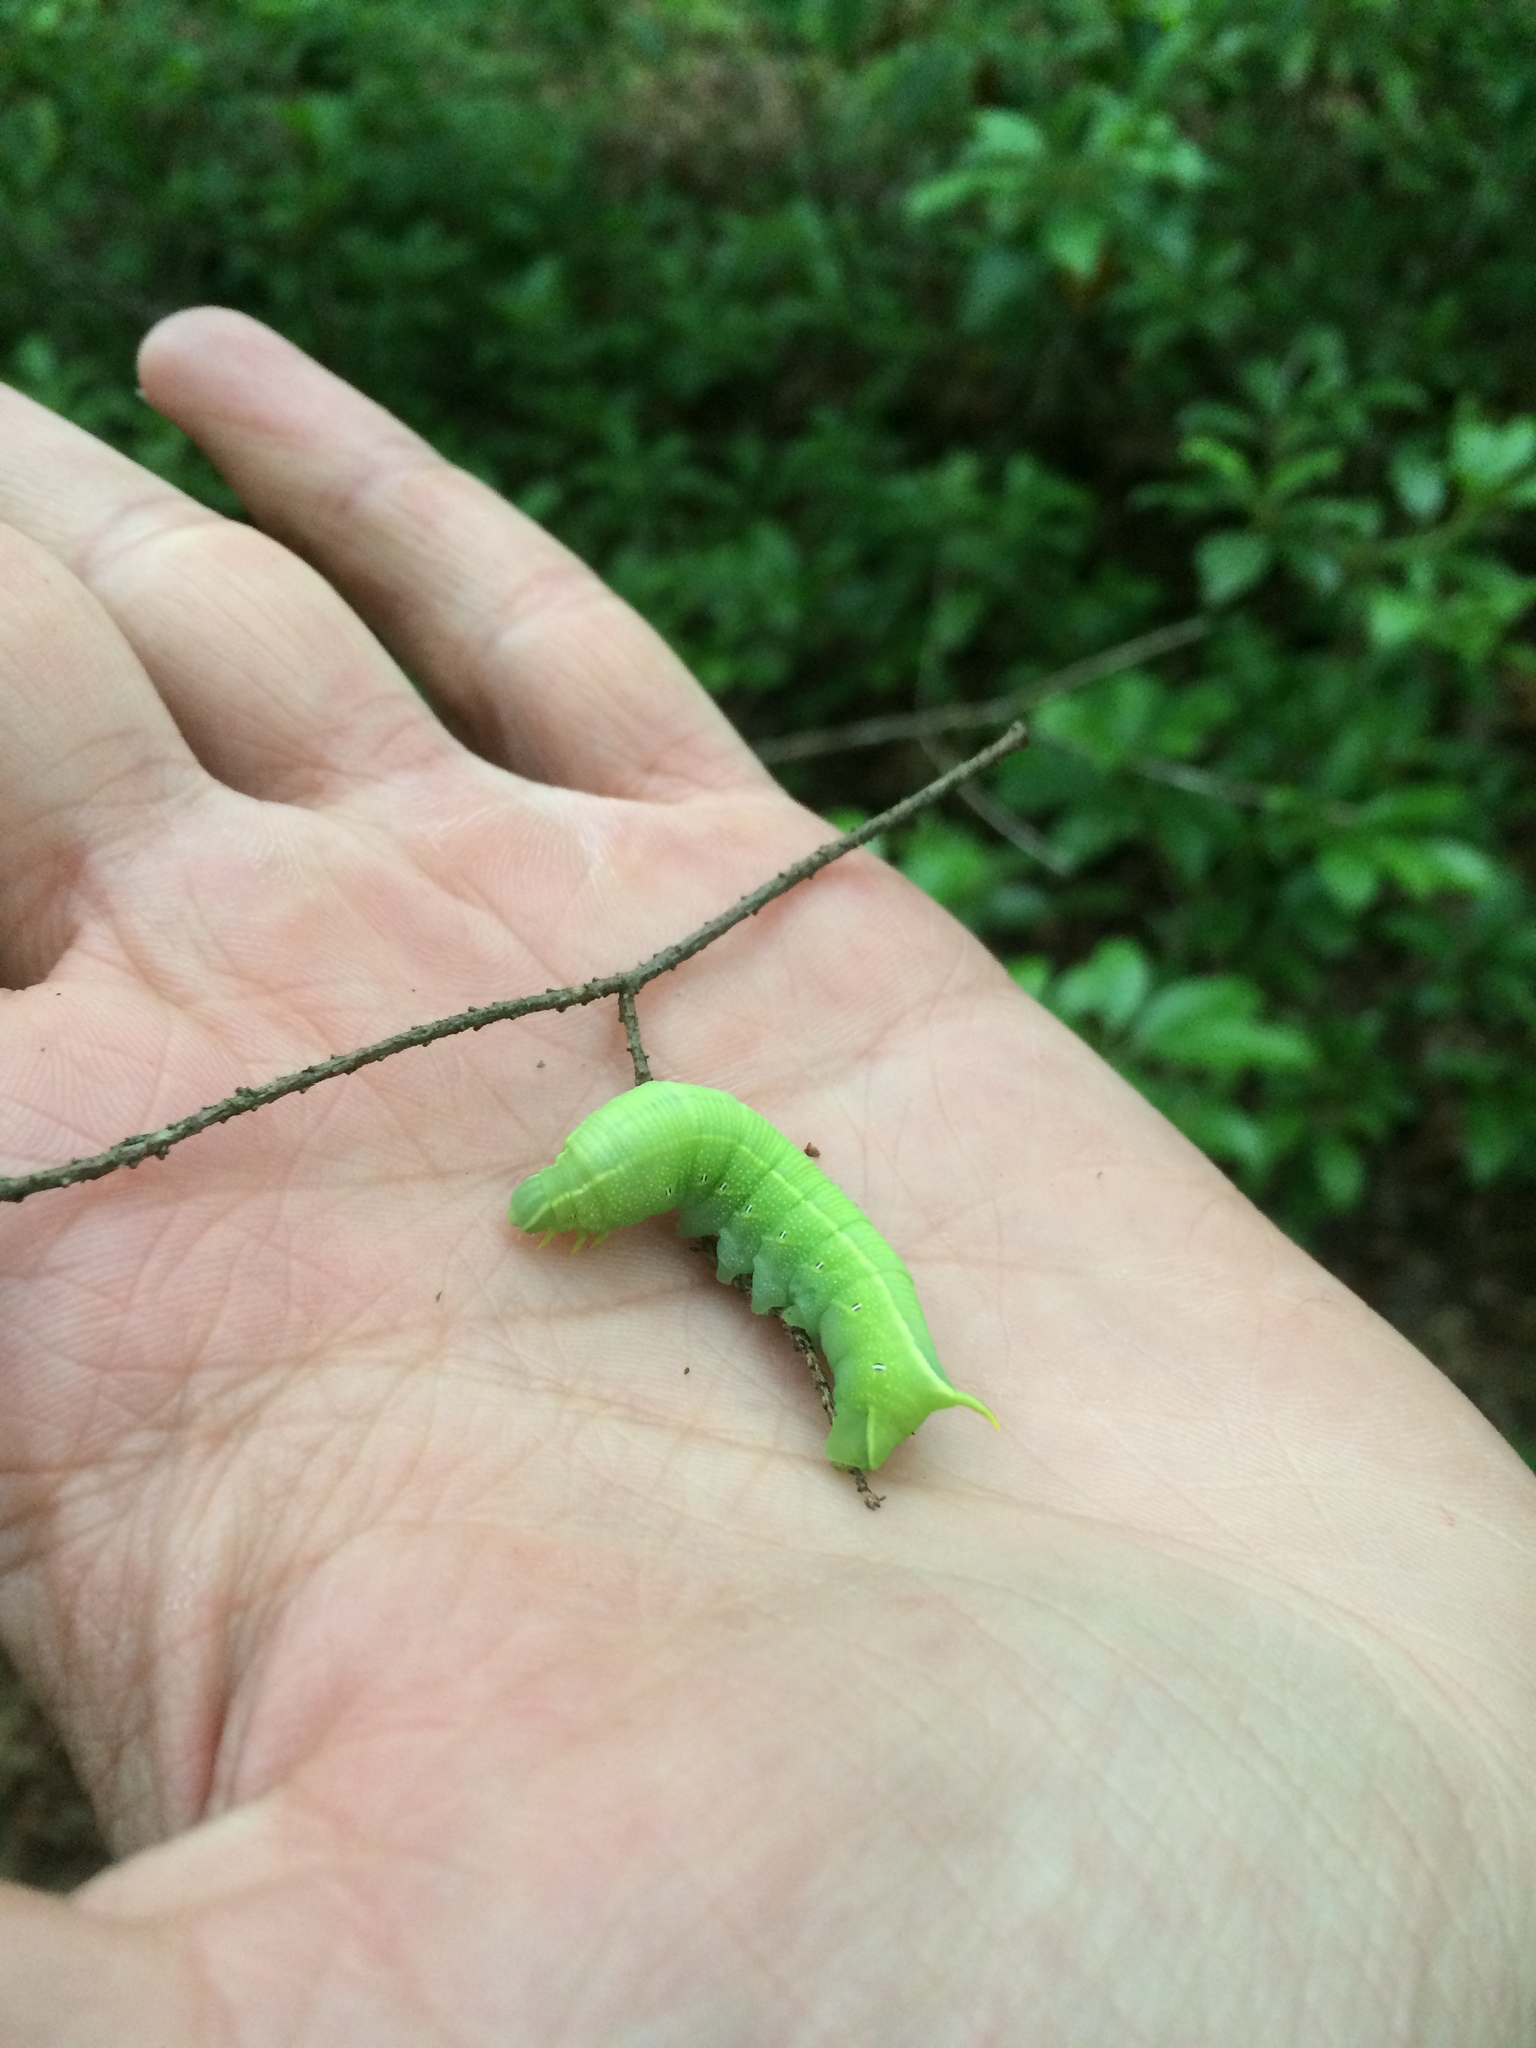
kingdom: Animalia
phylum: Arthropoda
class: Insecta
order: Lepidoptera
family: Sphingidae
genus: Deidamia
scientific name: Deidamia inscriptum
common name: Lettered sphinx
